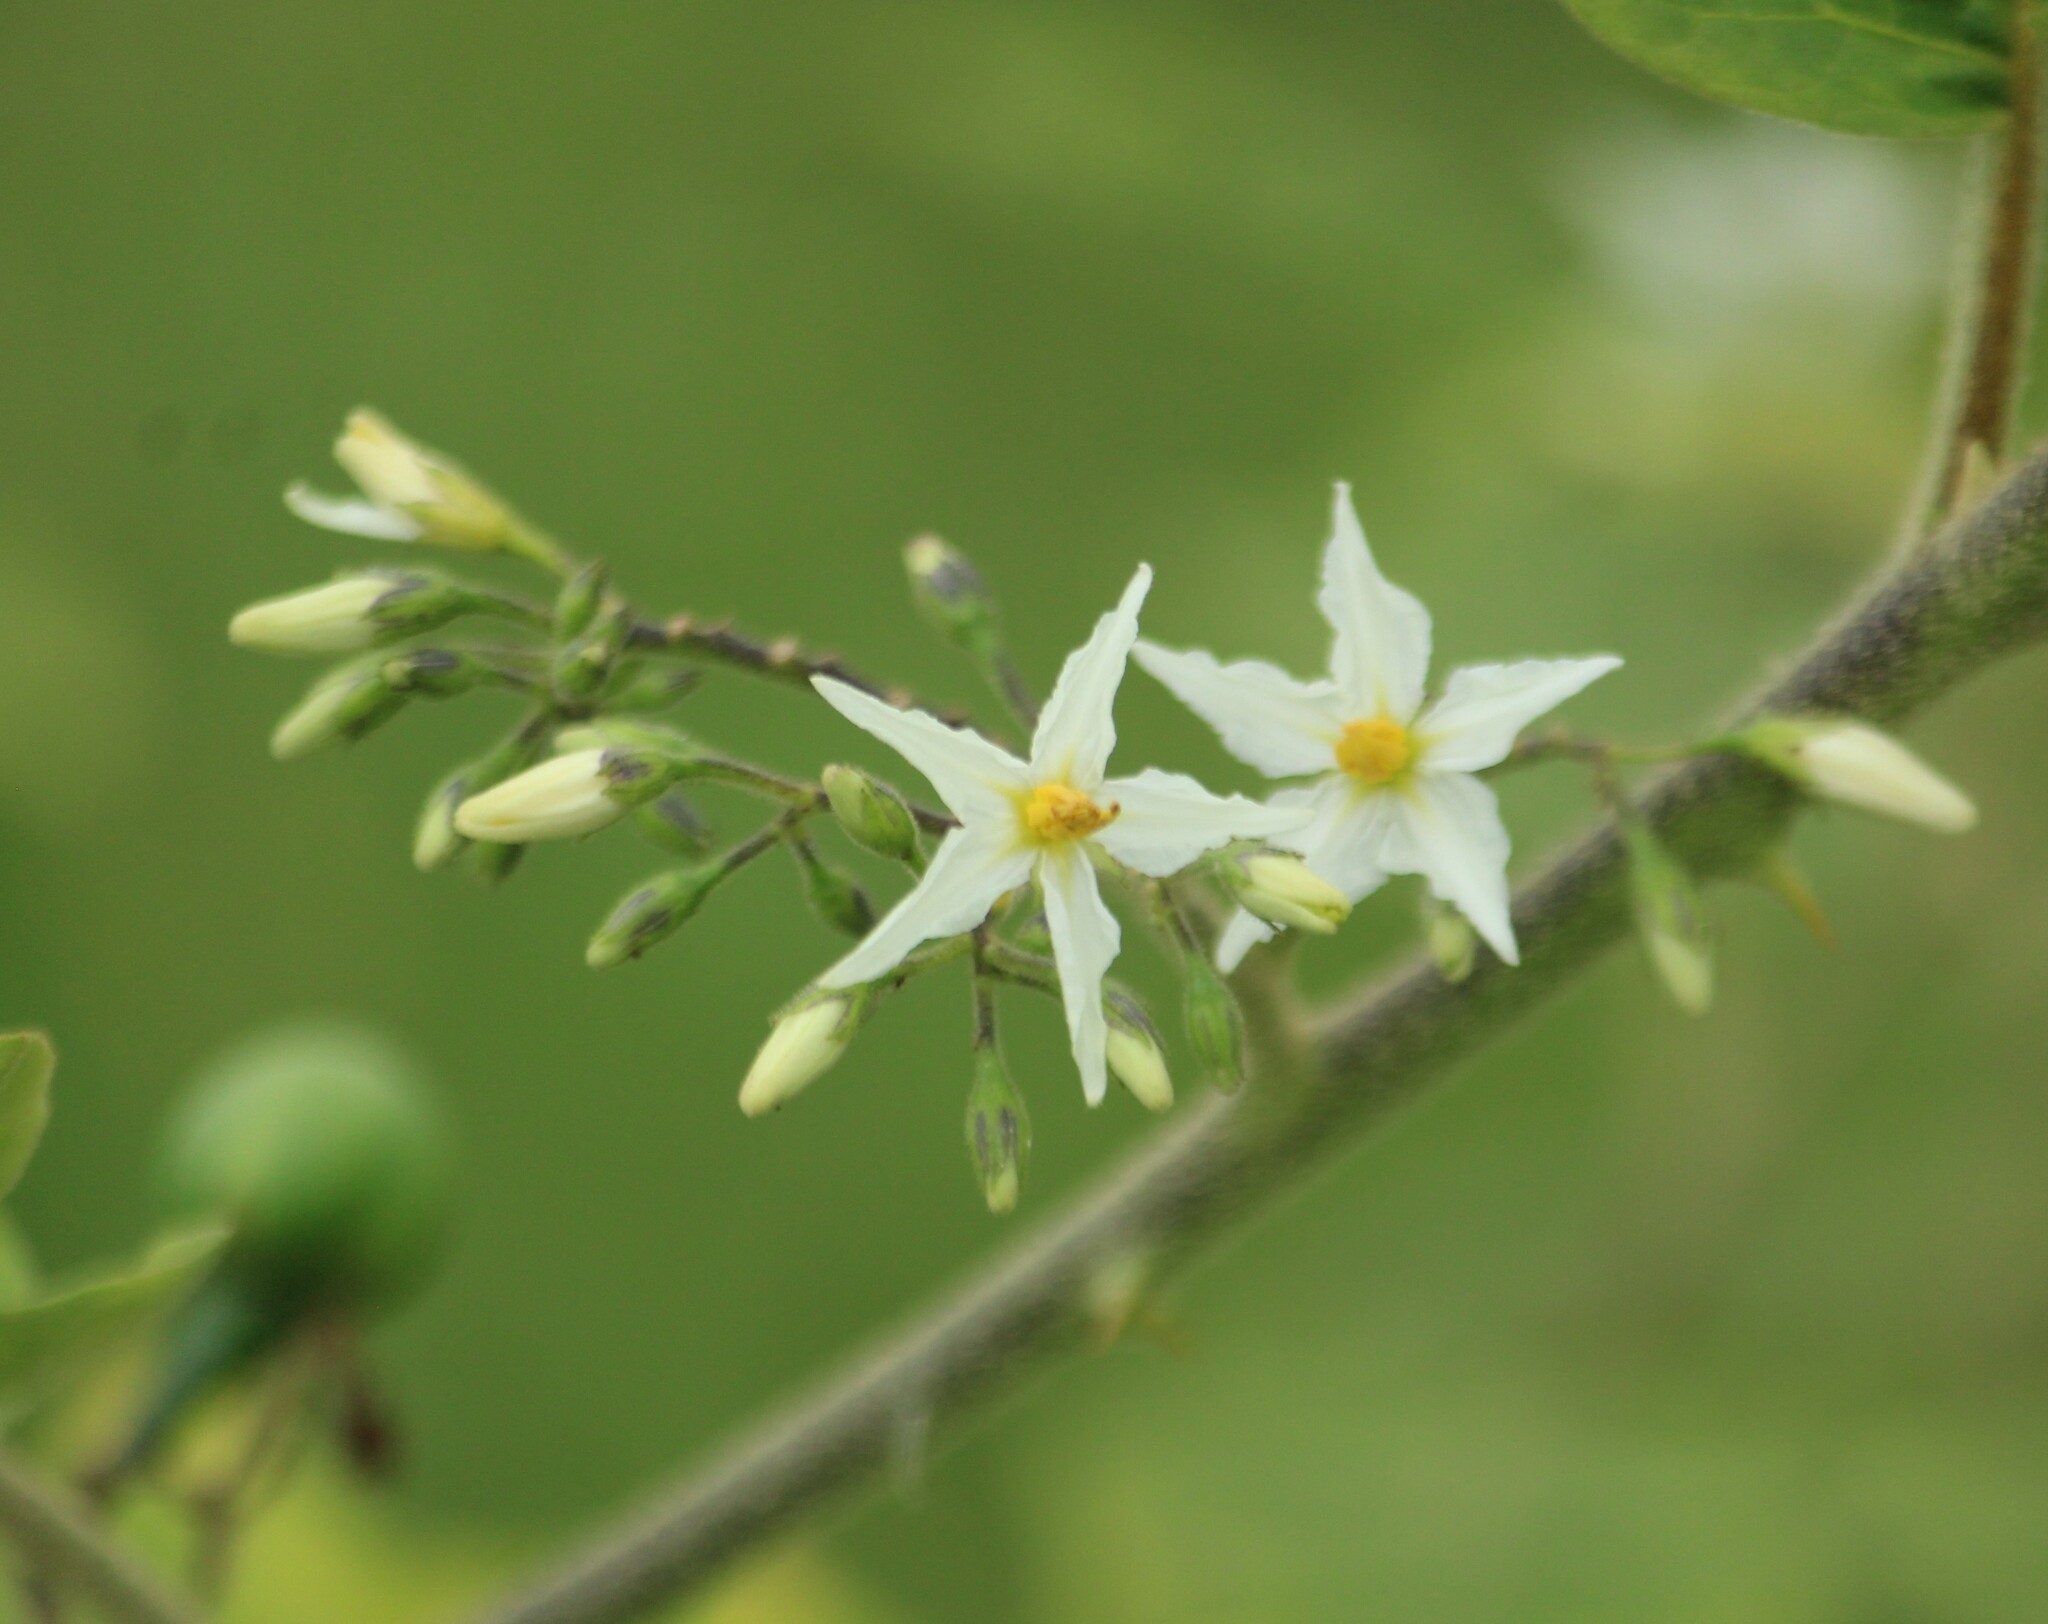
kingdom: Plantae
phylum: Tracheophyta
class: Magnoliopsida
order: Solanales
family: Solanaceae
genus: Solanum
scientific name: Solanum torvum
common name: Turkey berry
